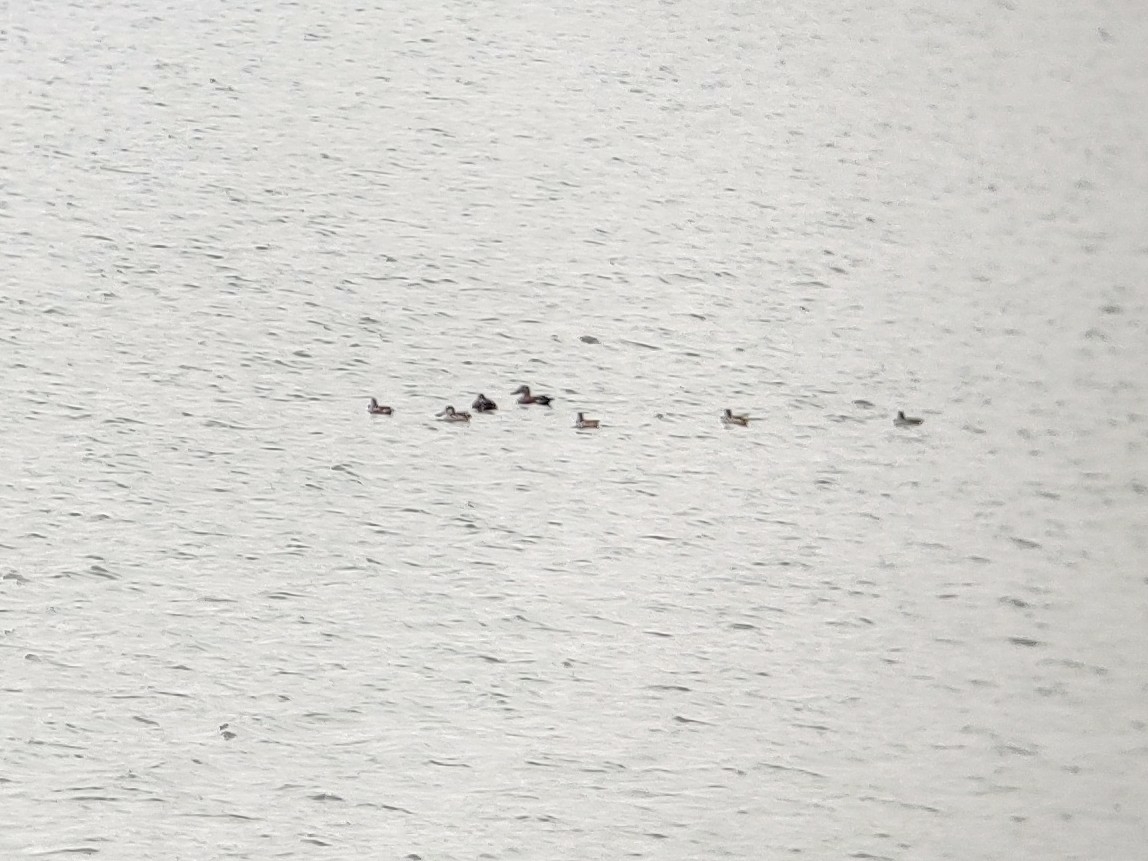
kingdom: Animalia
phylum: Chordata
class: Aves
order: Anseriformes
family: Anatidae
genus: Spatula
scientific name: Spatula rhynchotis
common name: Australian shoveler
